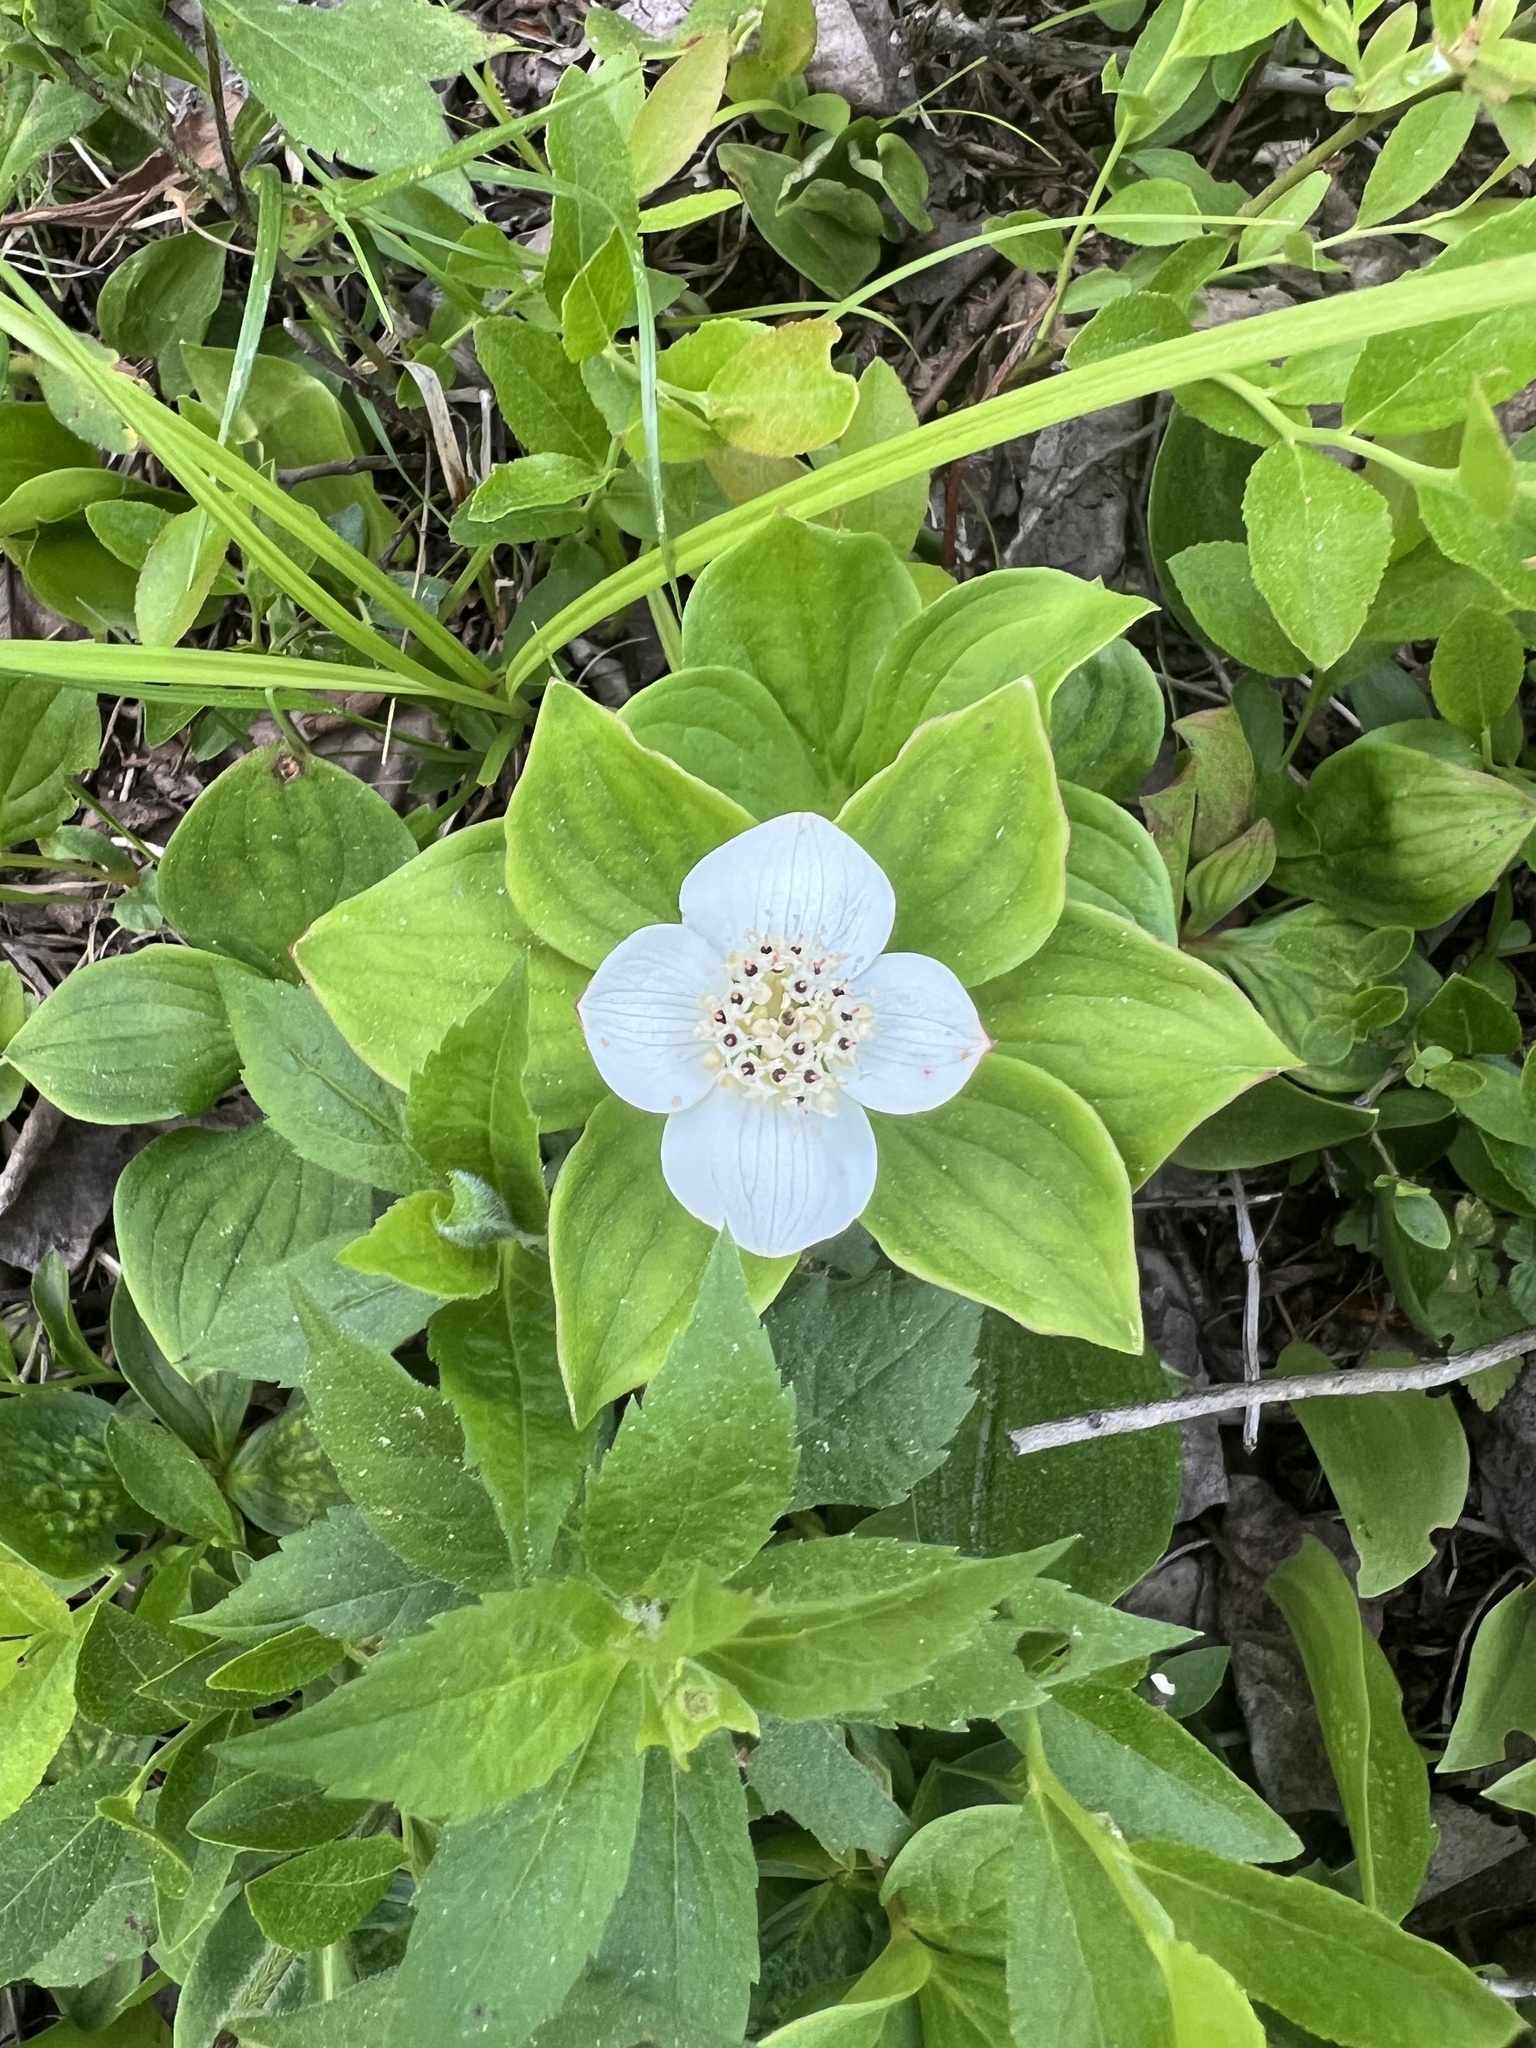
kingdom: Plantae
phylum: Tracheophyta
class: Magnoliopsida
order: Cornales
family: Cornaceae
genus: Cornus
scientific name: Cornus canadensis
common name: Creeping dogwood
